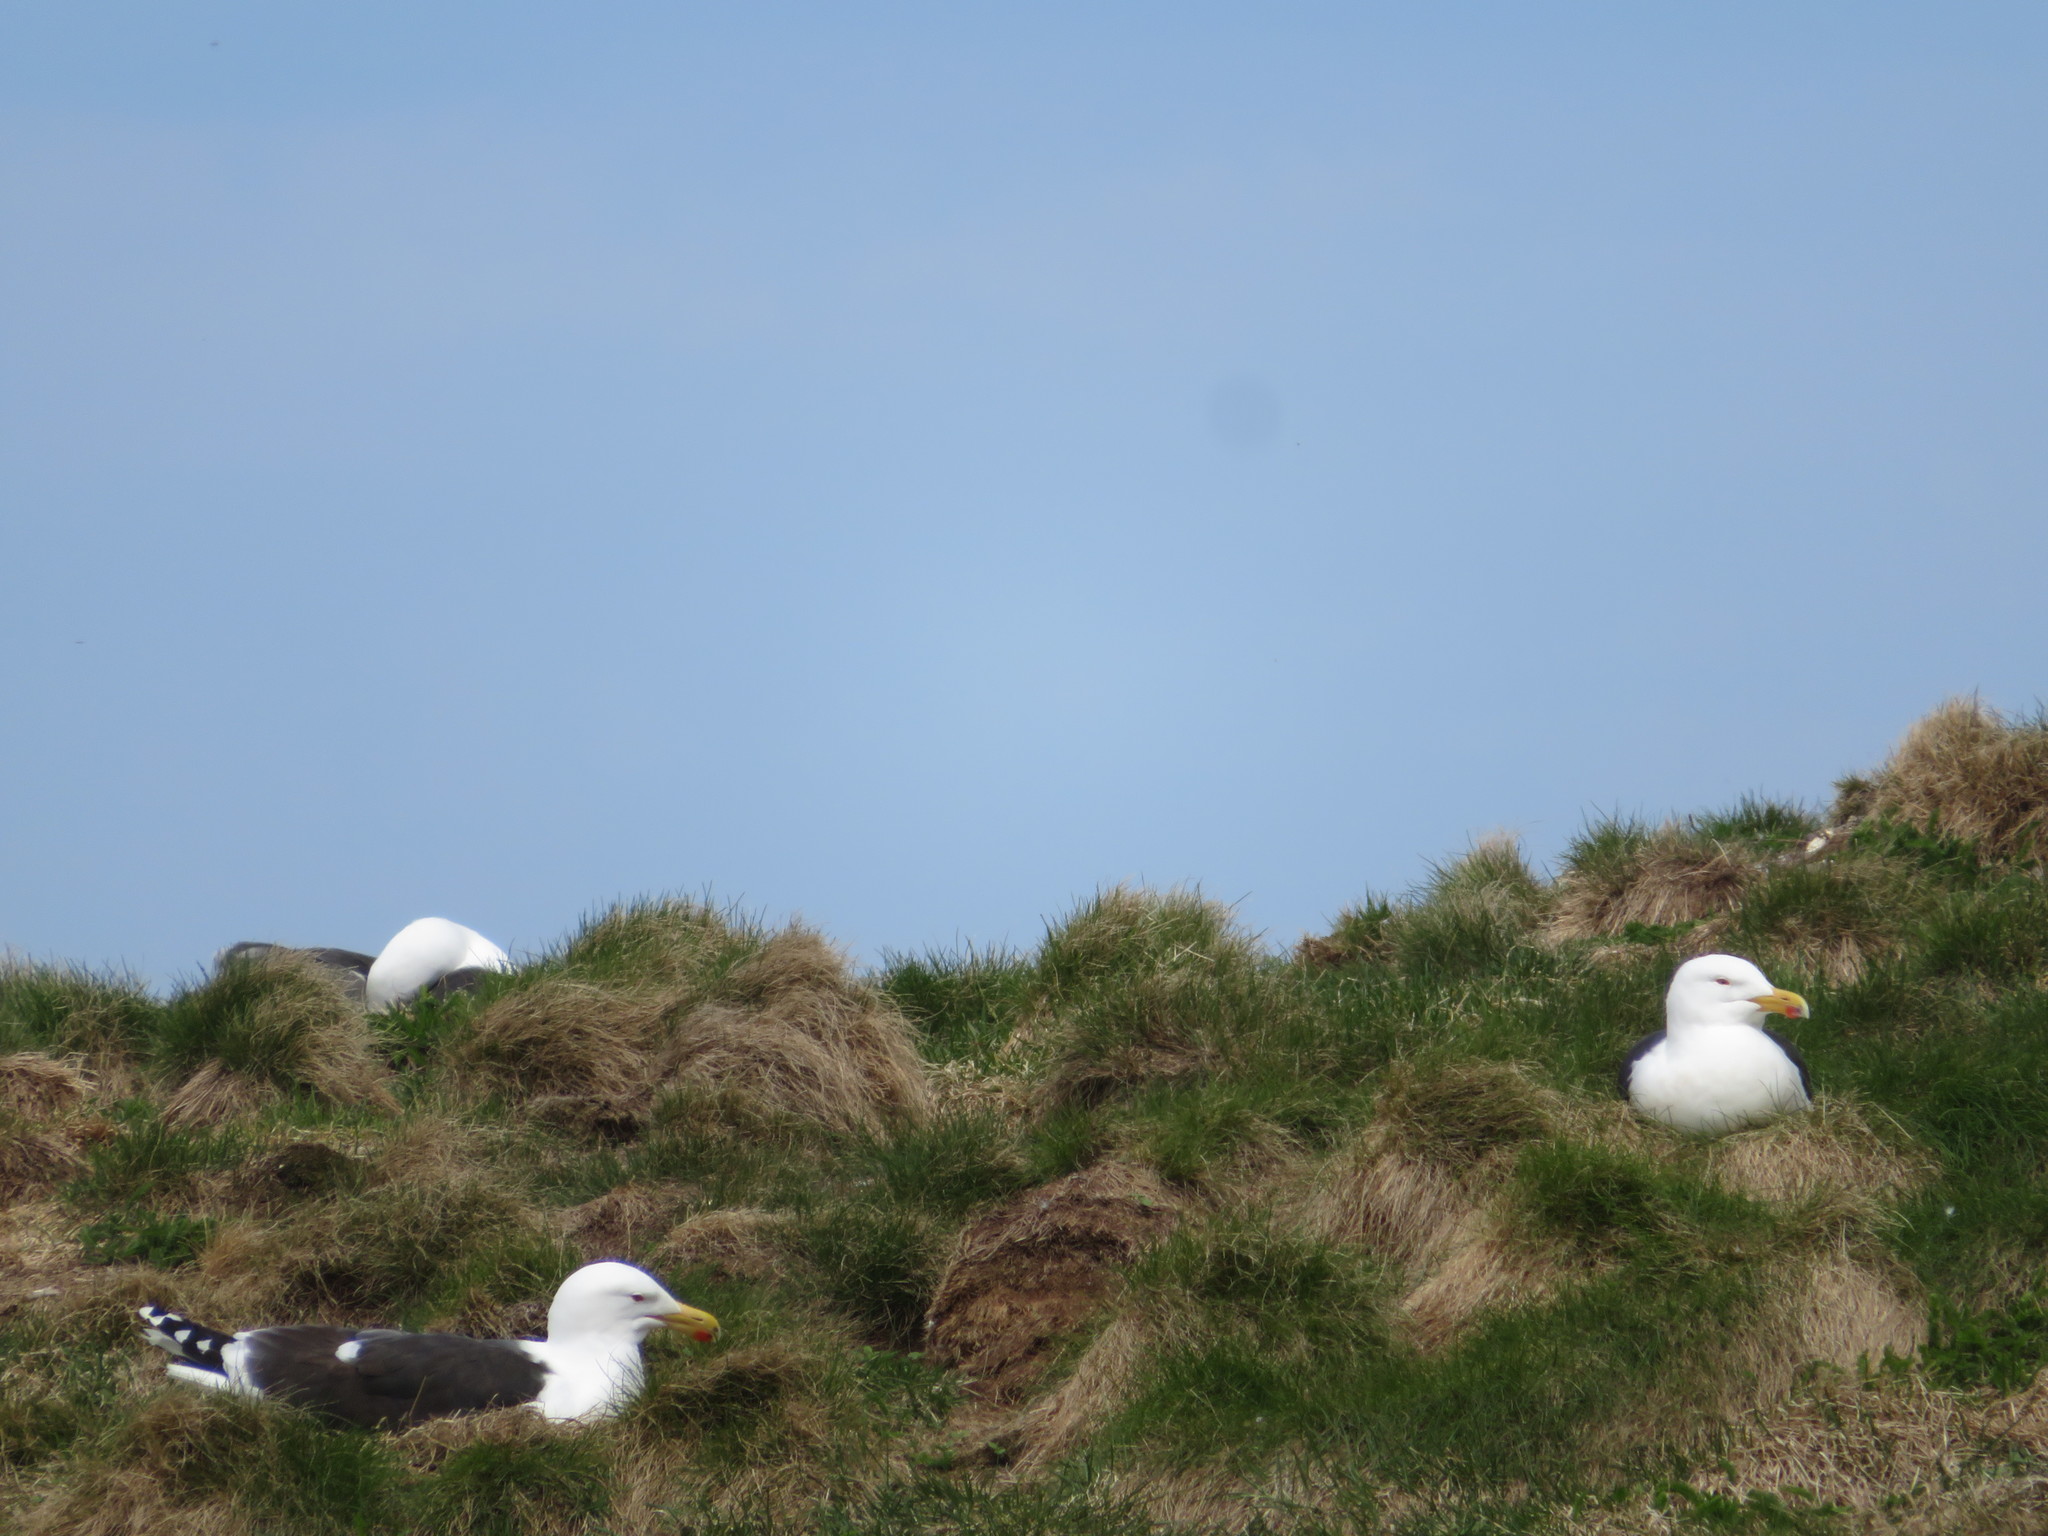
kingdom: Animalia
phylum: Chordata
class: Aves
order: Charadriiformes
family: Laridae
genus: Larus
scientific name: Larus marinus
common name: Great black-backed gull
